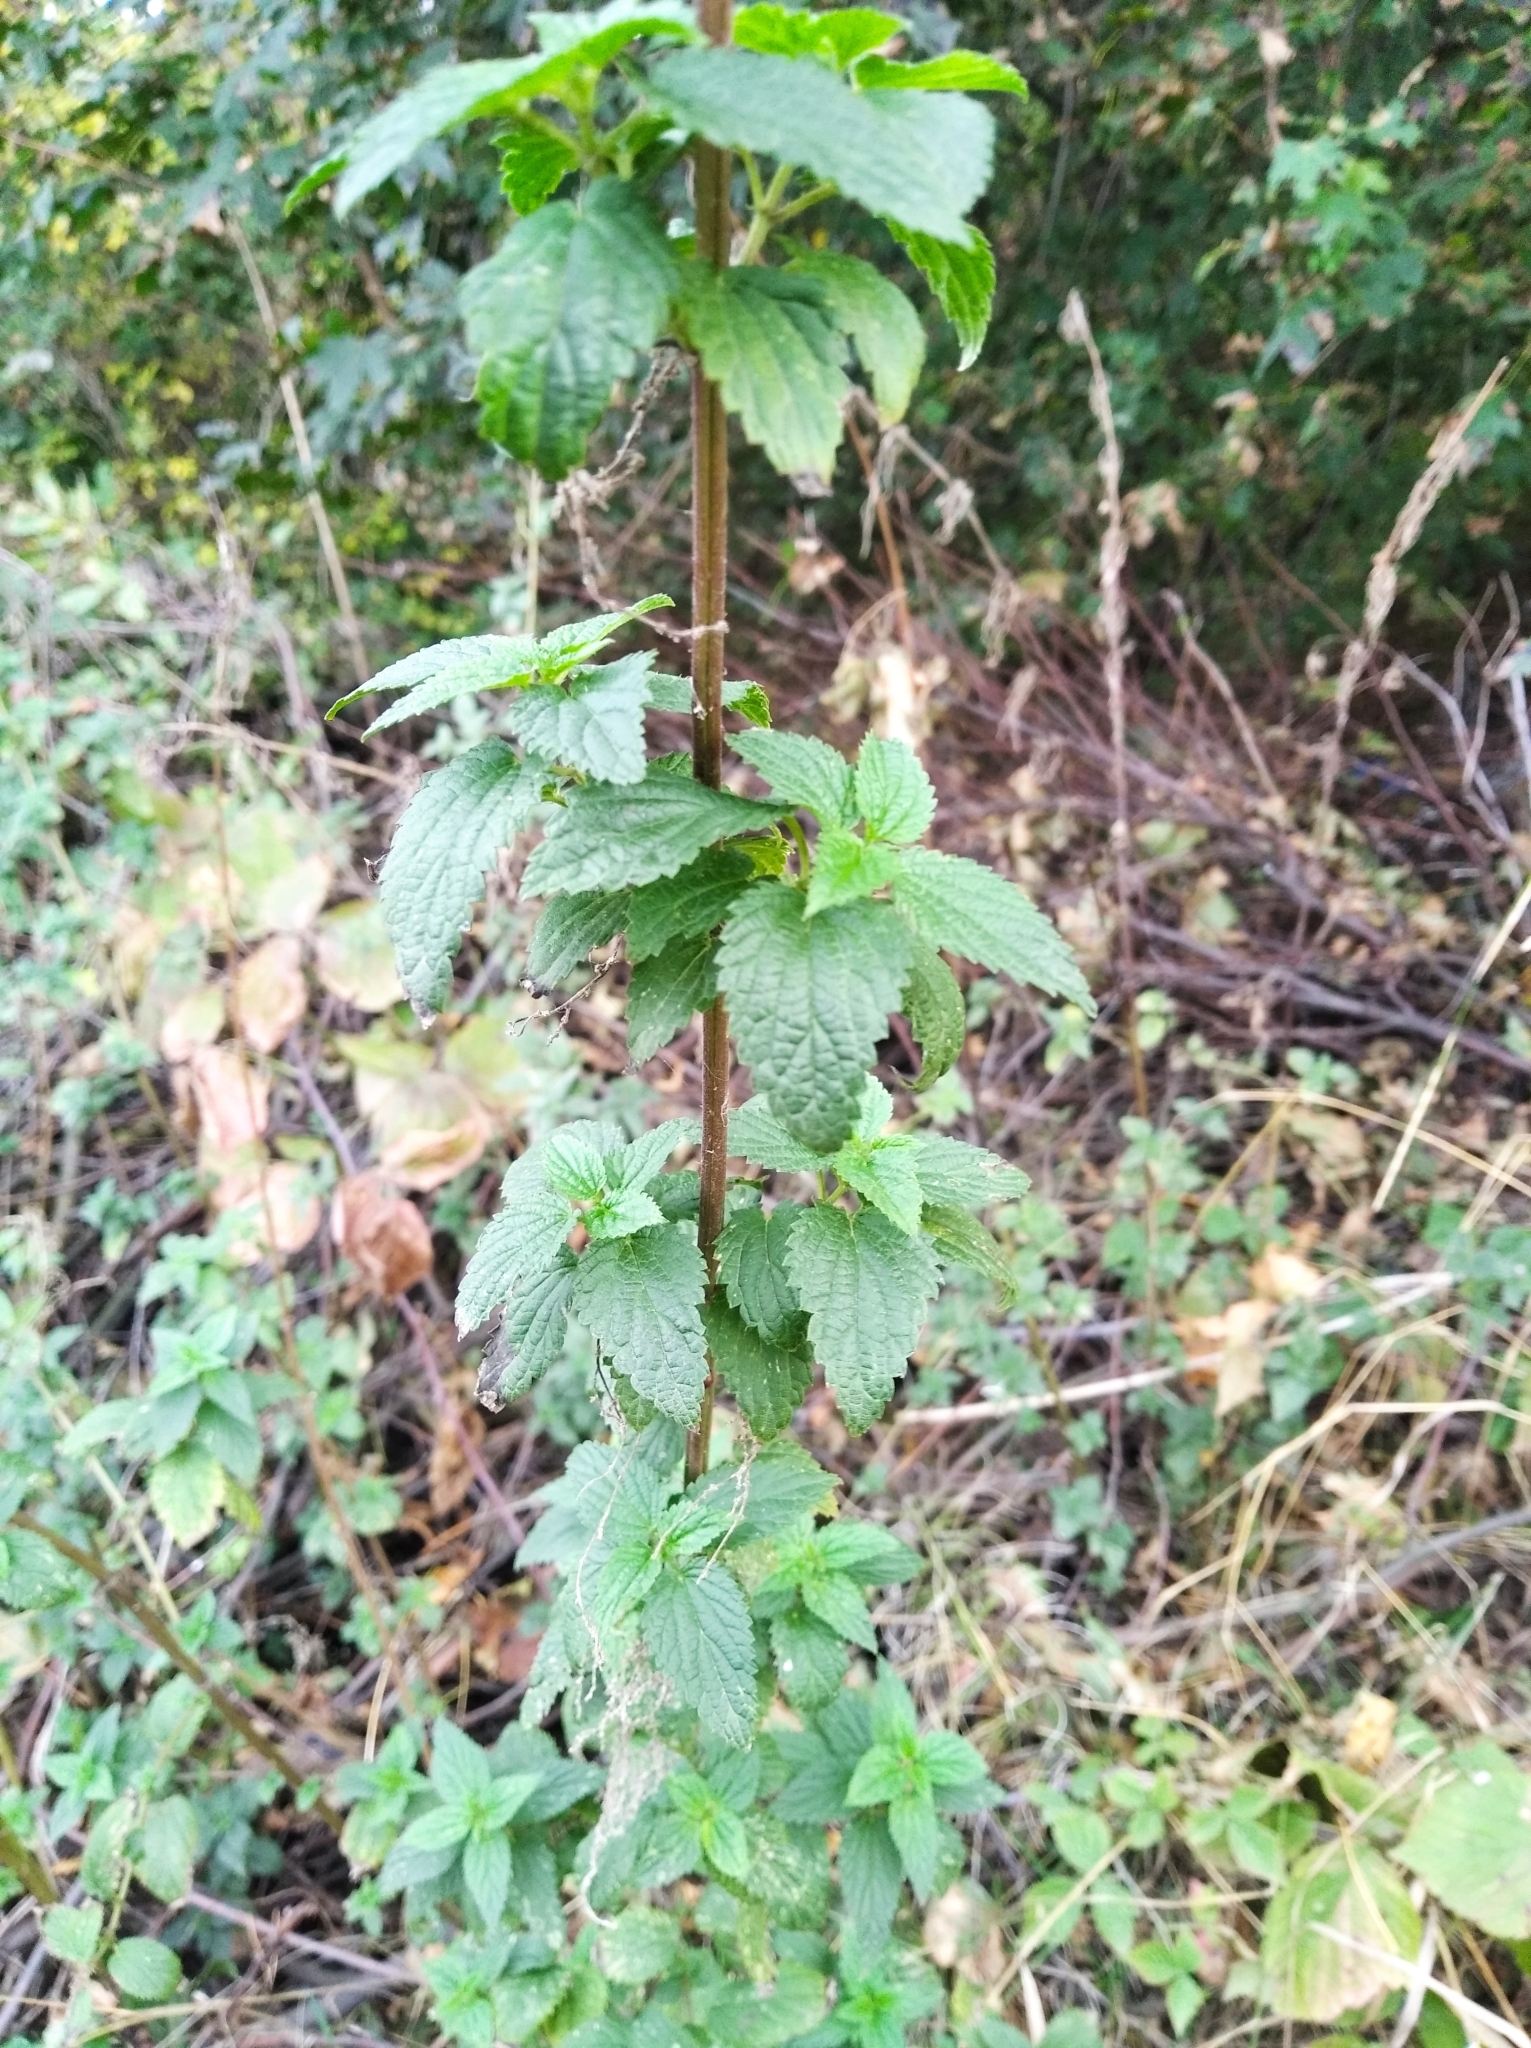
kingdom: Plantae
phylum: Tracheophyta
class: Magnoliopsida
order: Lamiales
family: Lamiaceae
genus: Ballota
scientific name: Ballota nigra
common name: Black horehound
